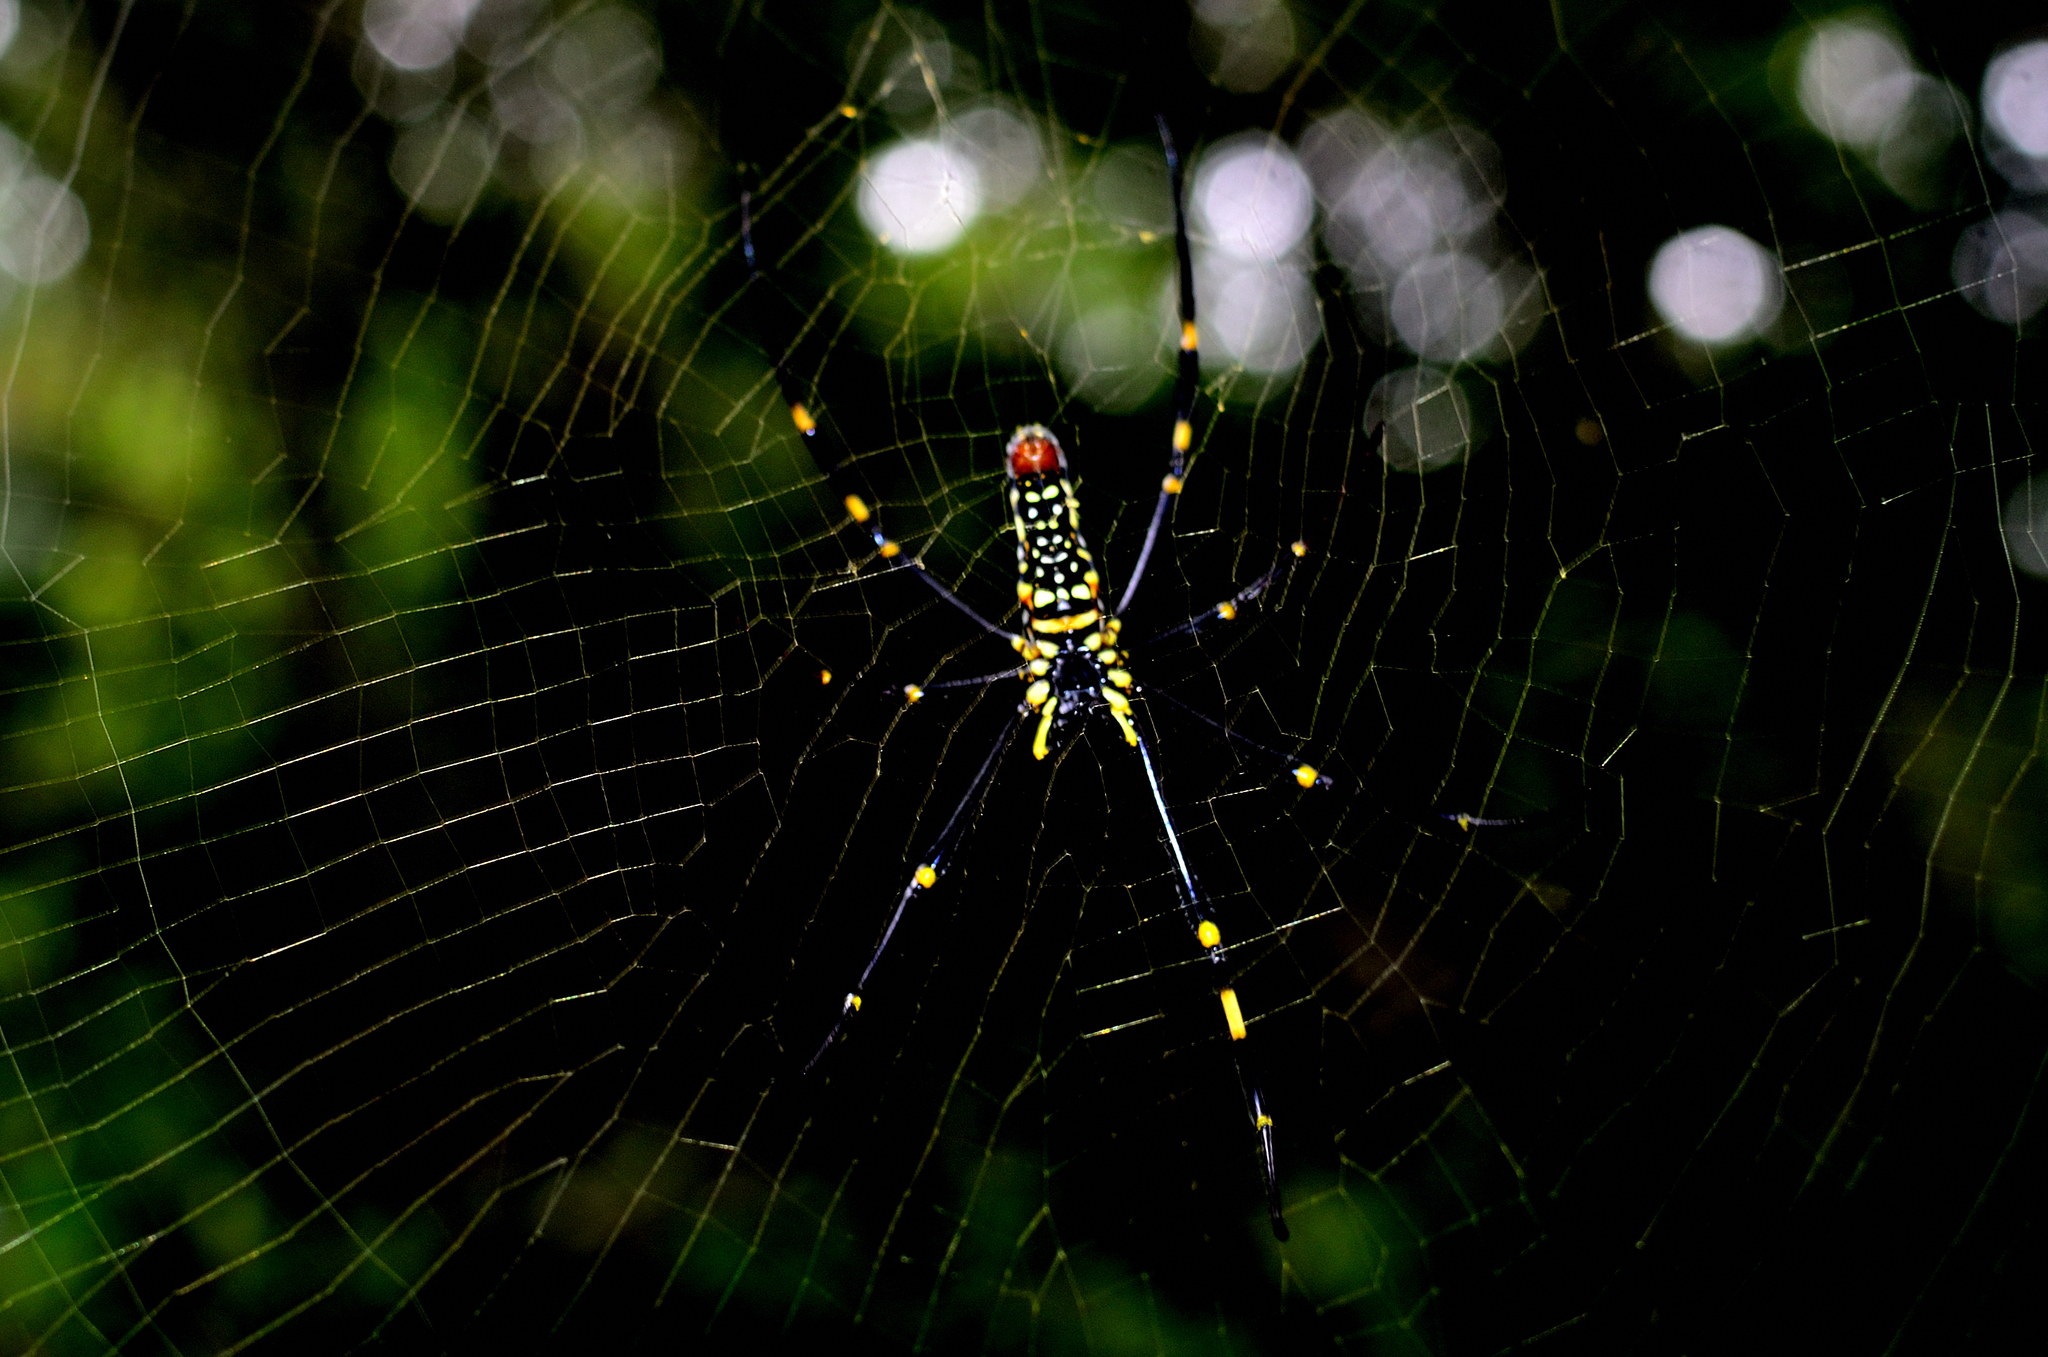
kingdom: Animalia
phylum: Arthropoda
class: Arachnida
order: Araneae
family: Araneidae
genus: Nephila
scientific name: Nephila pilipes
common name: Giant golden orb weaver
